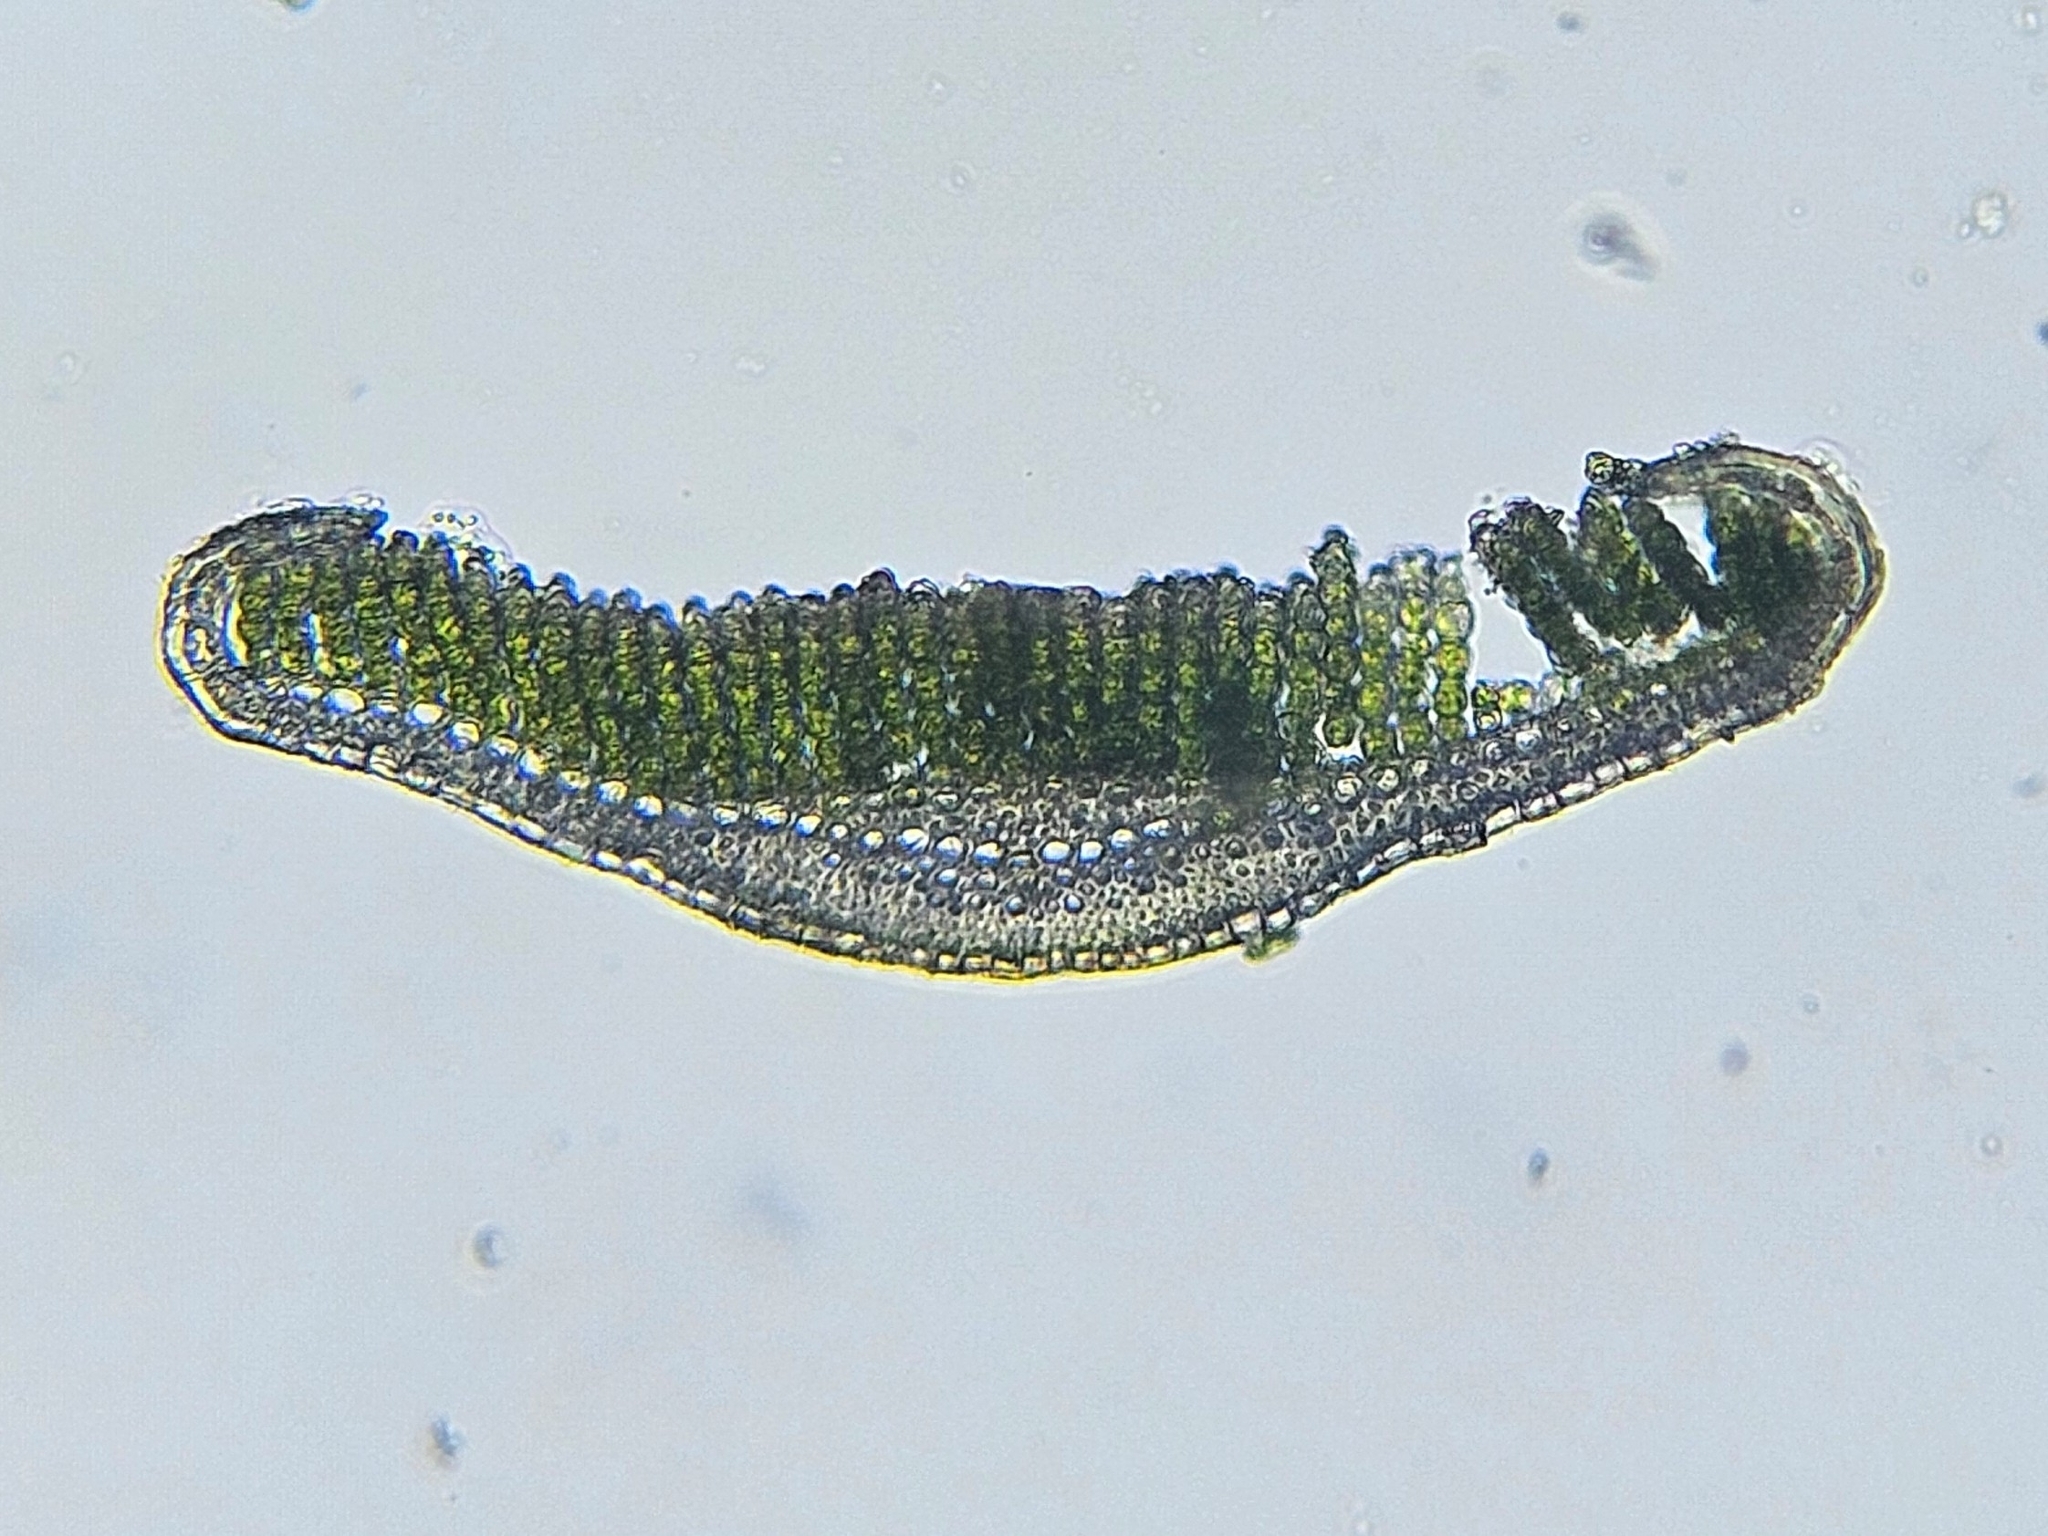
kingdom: Plantae
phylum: Bryophyta
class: Polytrichopsida
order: Polytrichales
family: Polytrichaceae
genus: Polytrichum
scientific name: Polytrichum juniperinum
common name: Juniper haircap moss
